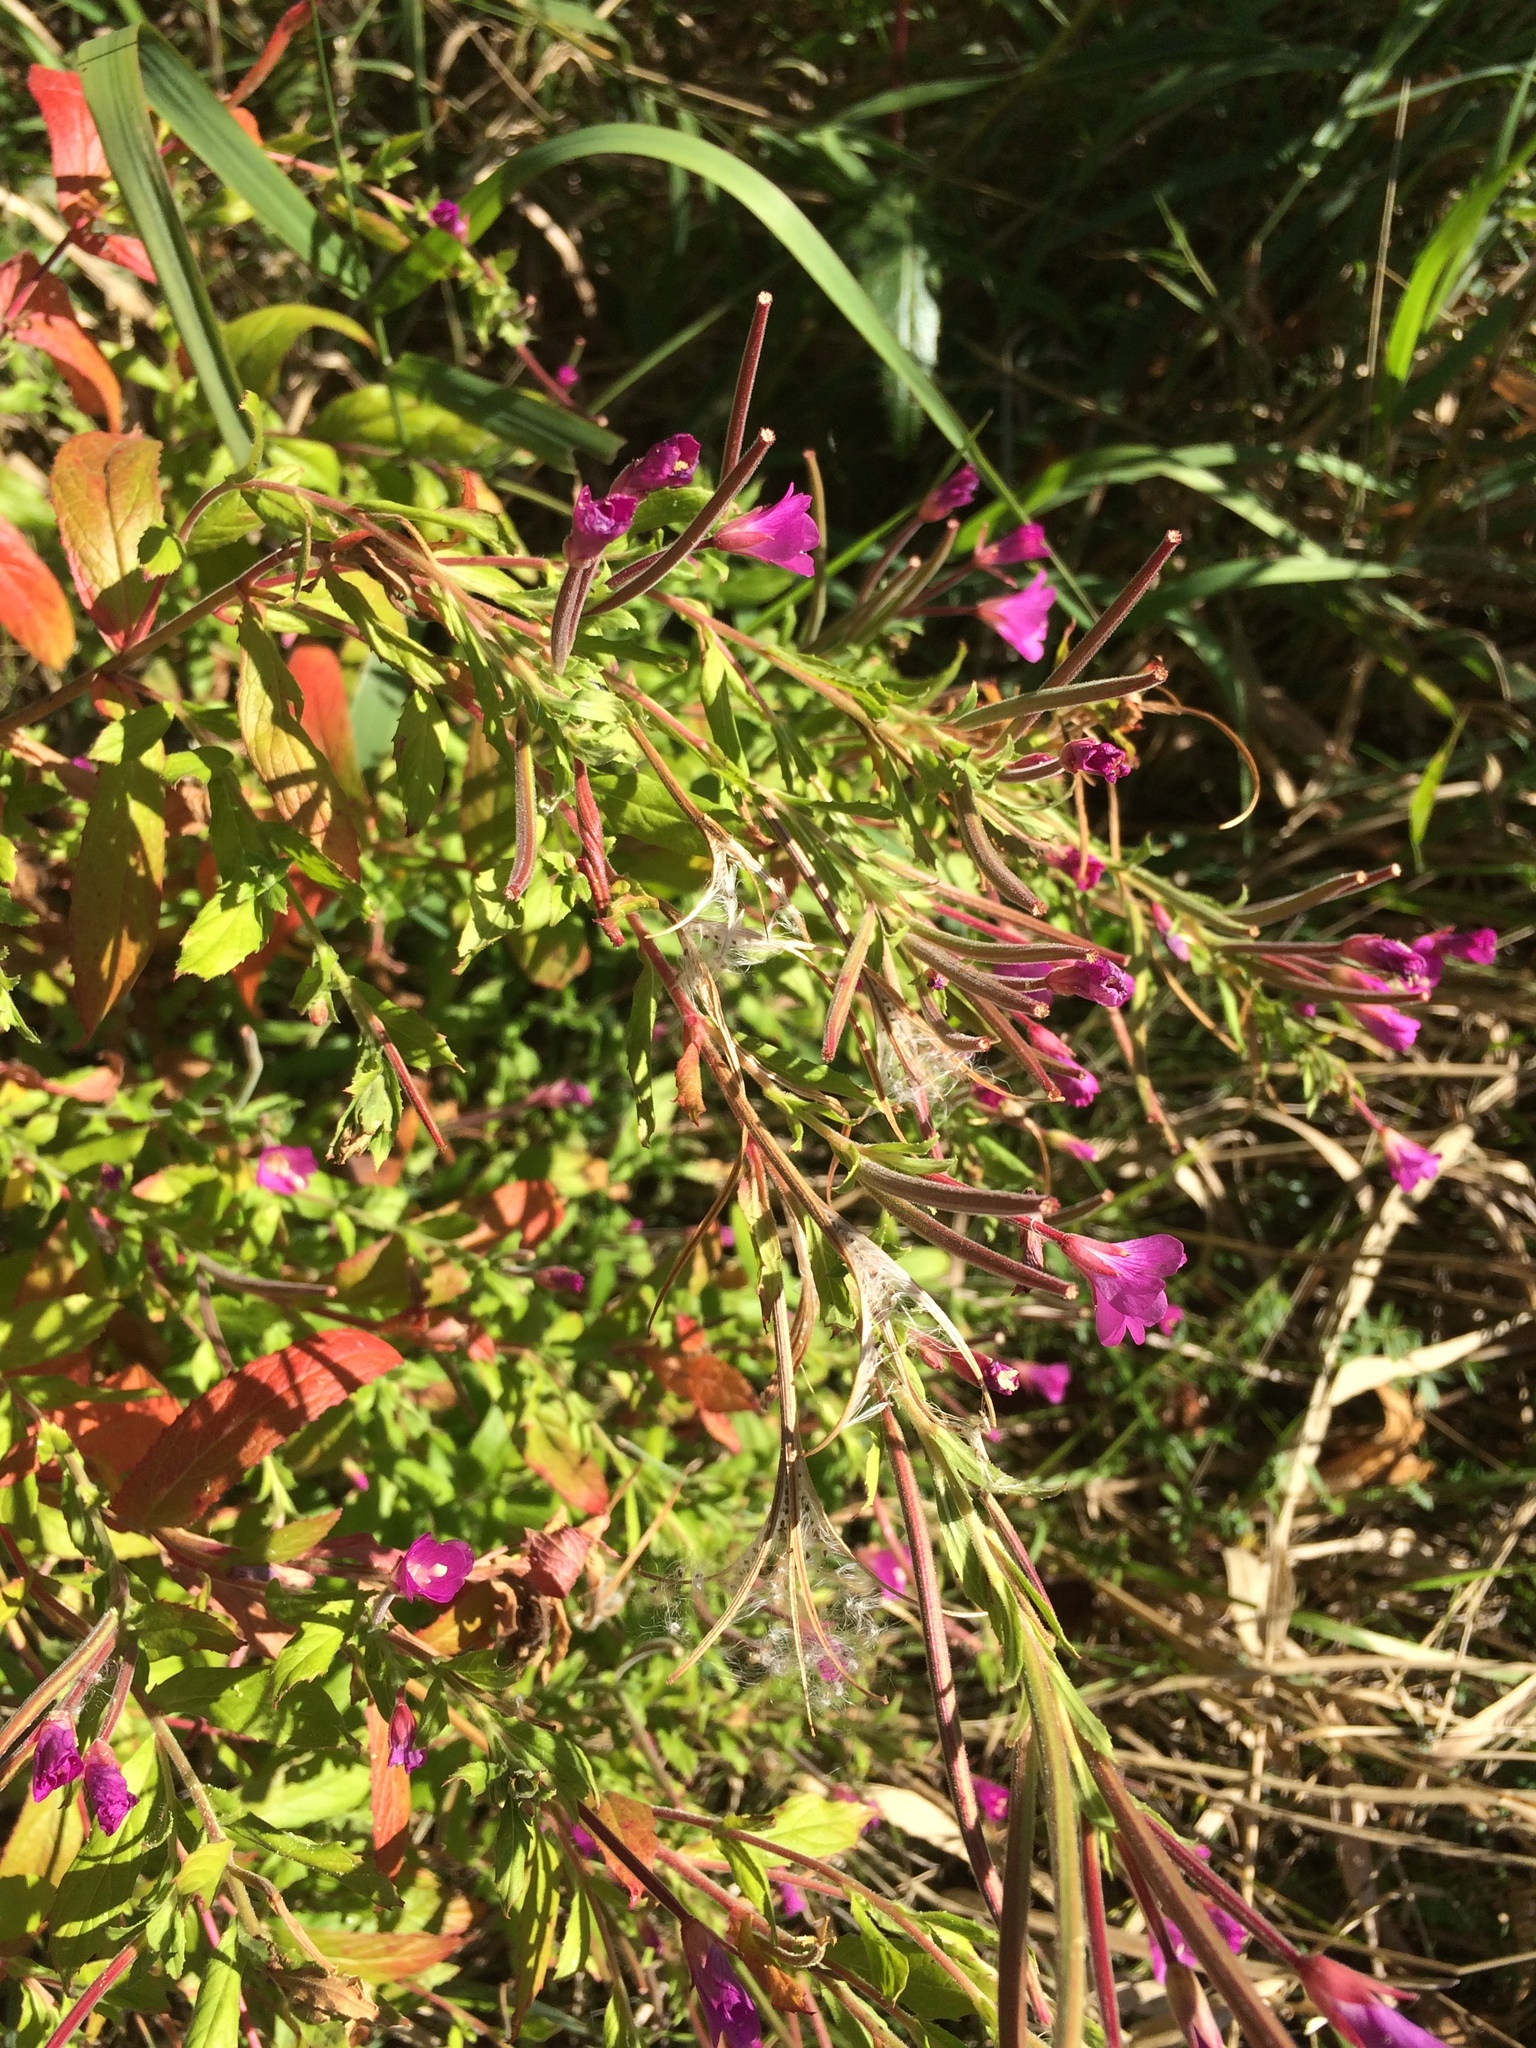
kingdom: Plantae
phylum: Tracheophyta
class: Magnoliopsida
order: Myrtales
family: Onagraceae
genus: Epilobium
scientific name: Epilobium hirsutum
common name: Great willowherb
